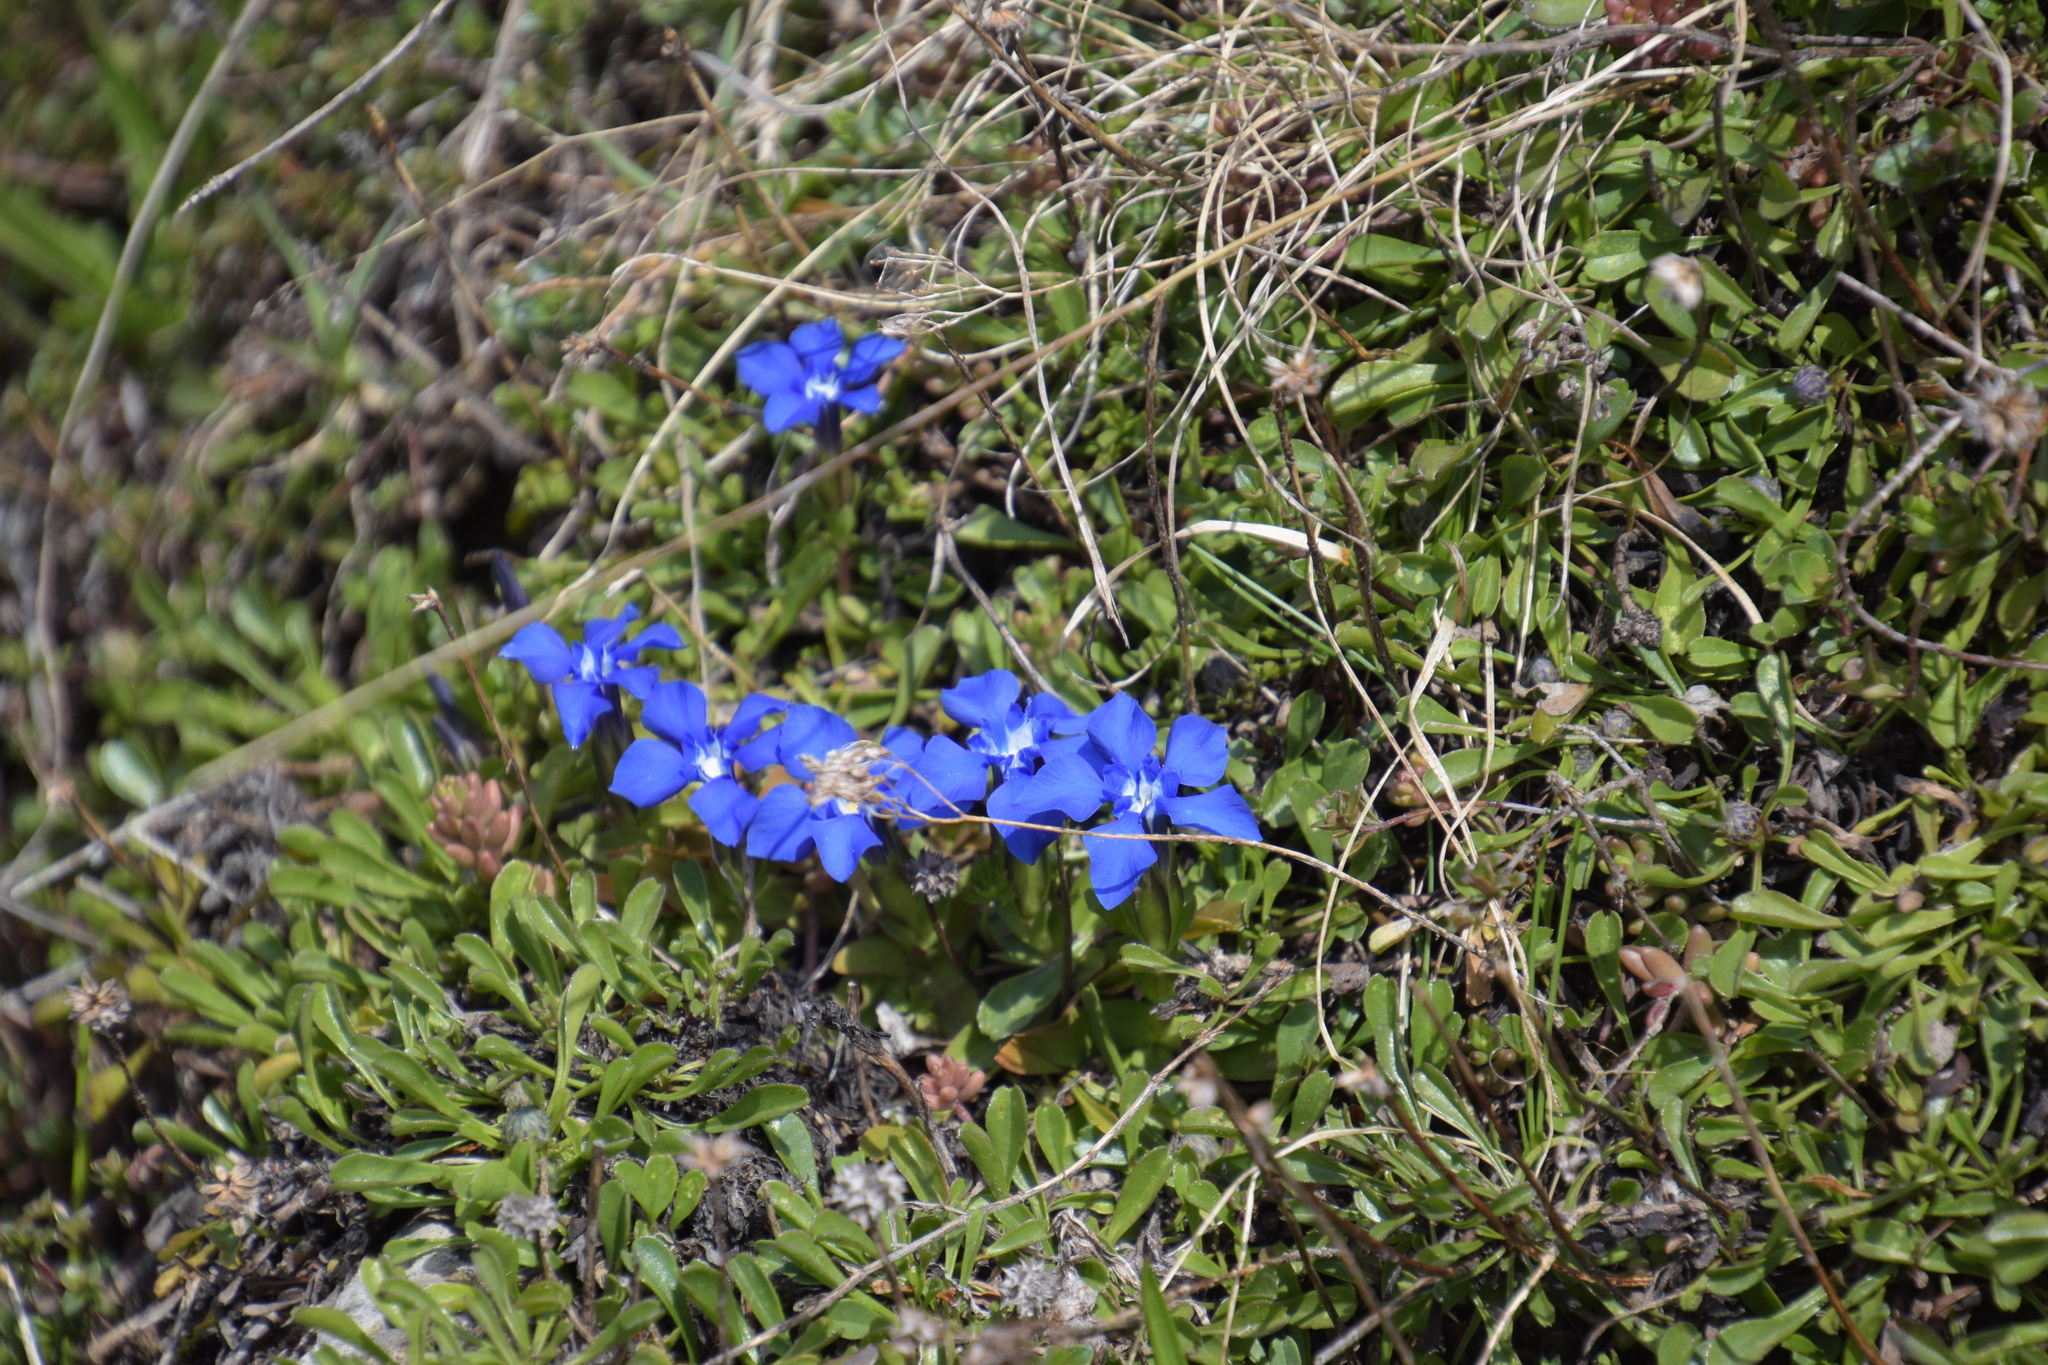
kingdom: Plantae
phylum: Tracheophyta
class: Magnoliopsida
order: Gentianales
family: Gentianaceae
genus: Gentiana
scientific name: Gentiana verna
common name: Spring gentian
